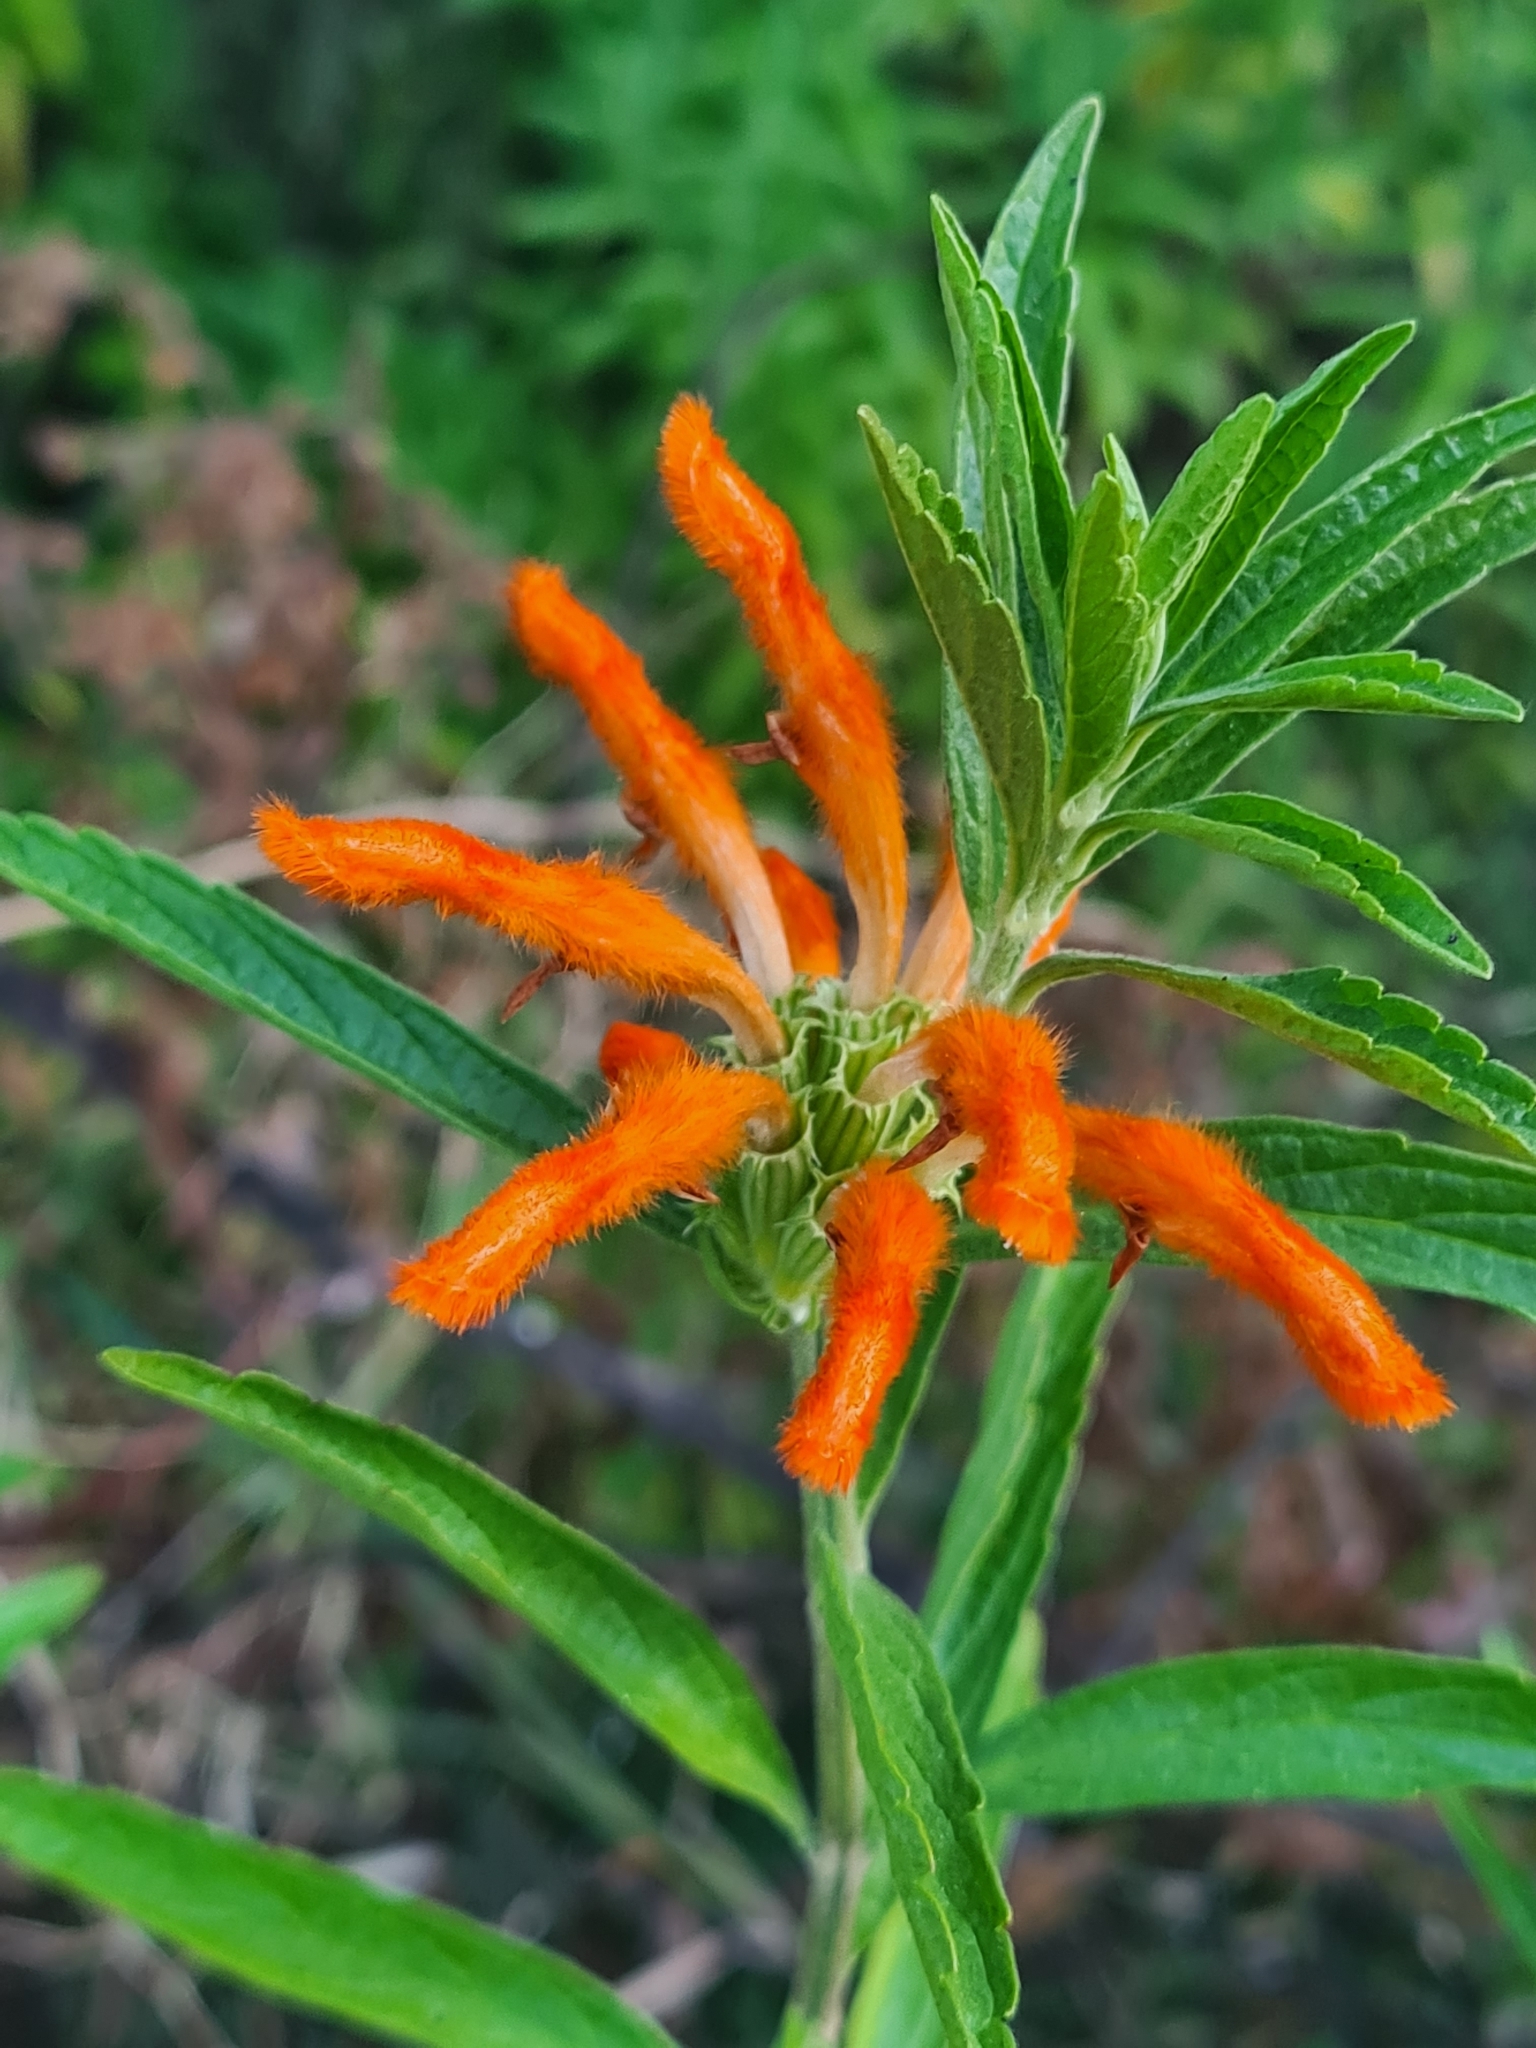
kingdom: Plantae
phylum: Tracheophyta
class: Magnoliopsida
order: Lamiales
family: Lamiaceae
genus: Leonotis
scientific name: Leonotis leonurus
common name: Lion's ear
